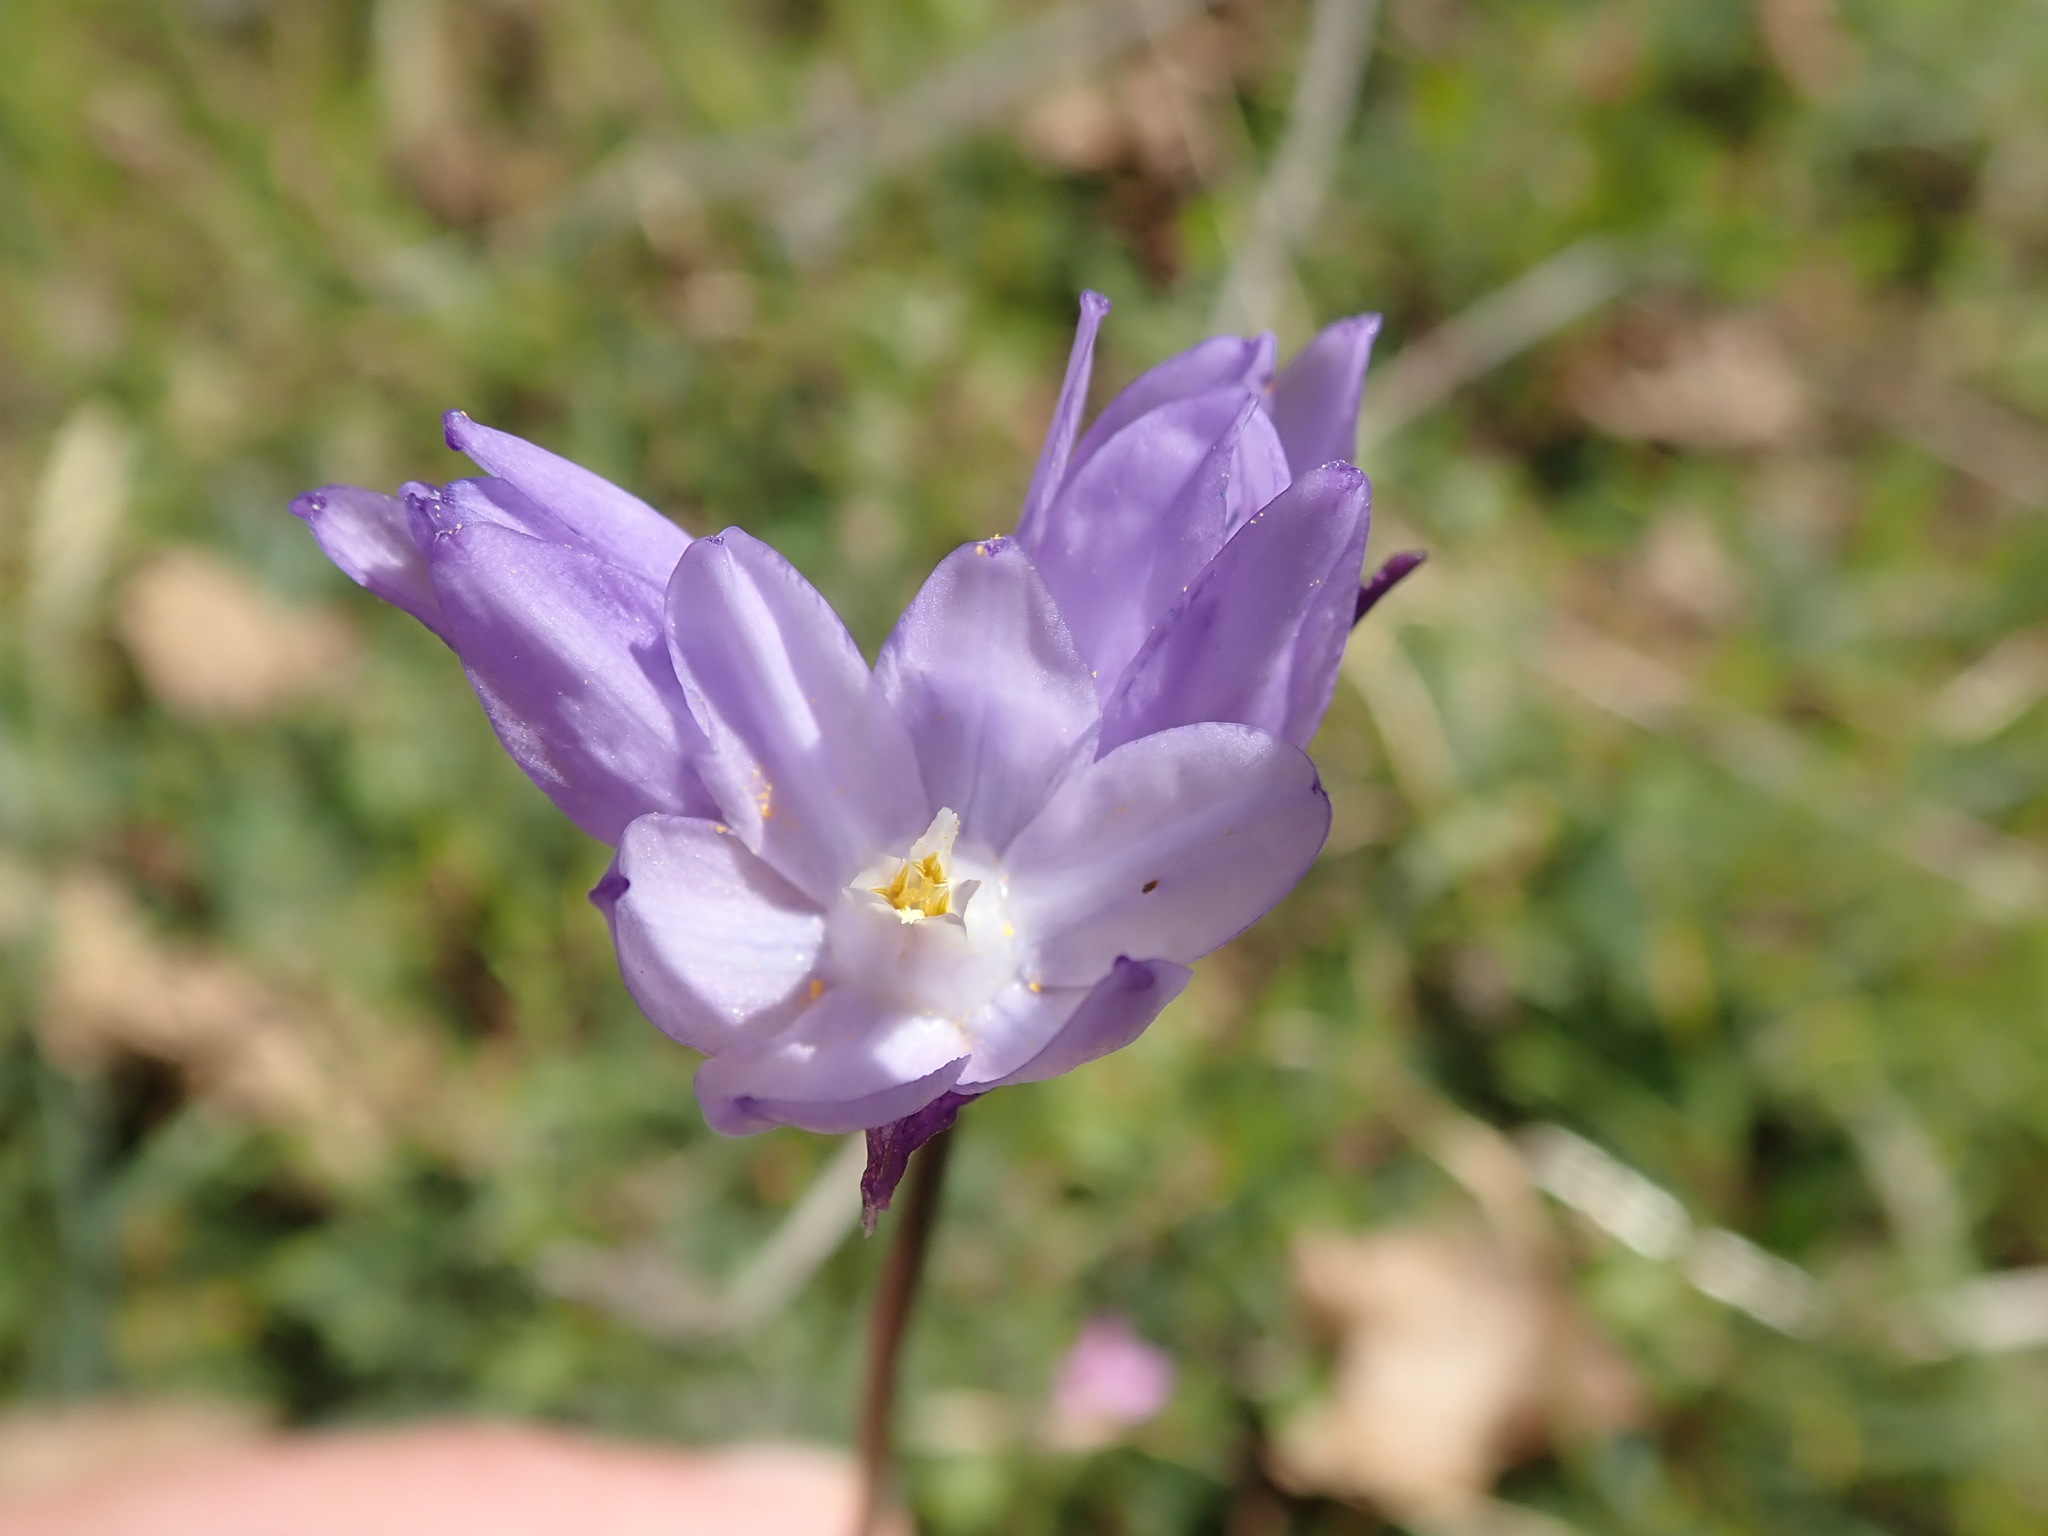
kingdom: Plantae
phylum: Tracheophyta
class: Liliopsida
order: Asparagales
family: Asparagaceae
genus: Dipterostemon
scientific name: Dipterostemon capitatus
